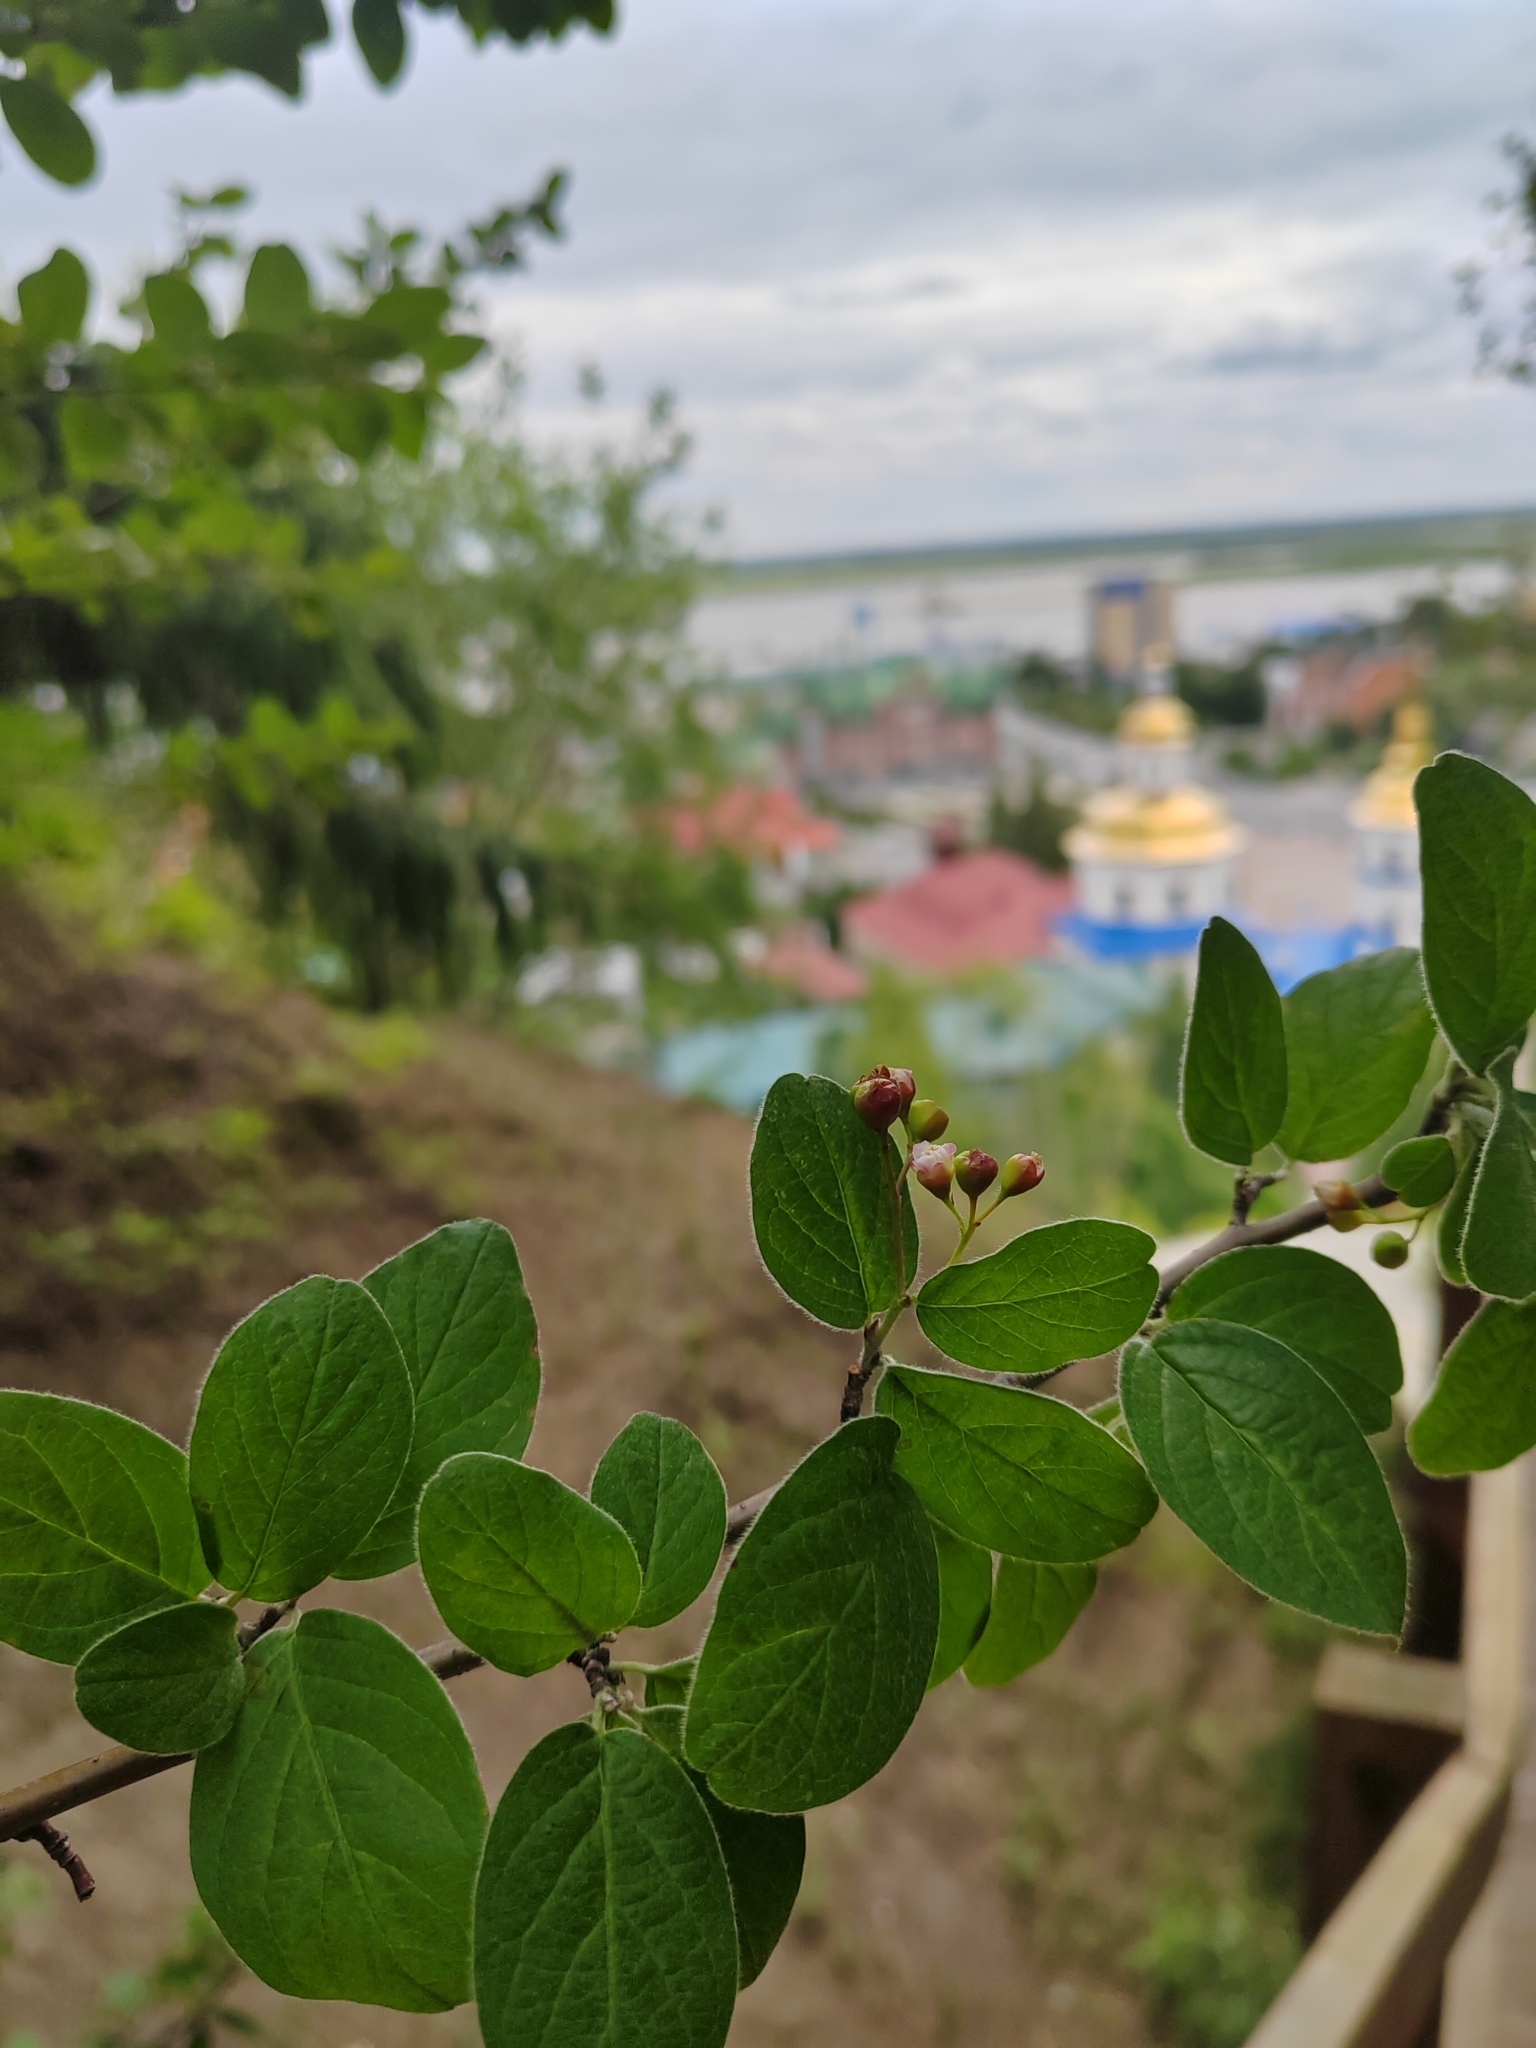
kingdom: Plantae
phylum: Tracheophyta
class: Magnoliopsida
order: Rosales
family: Rosaceae
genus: Cotoneaster
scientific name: Cotoneaster melanocarpus
